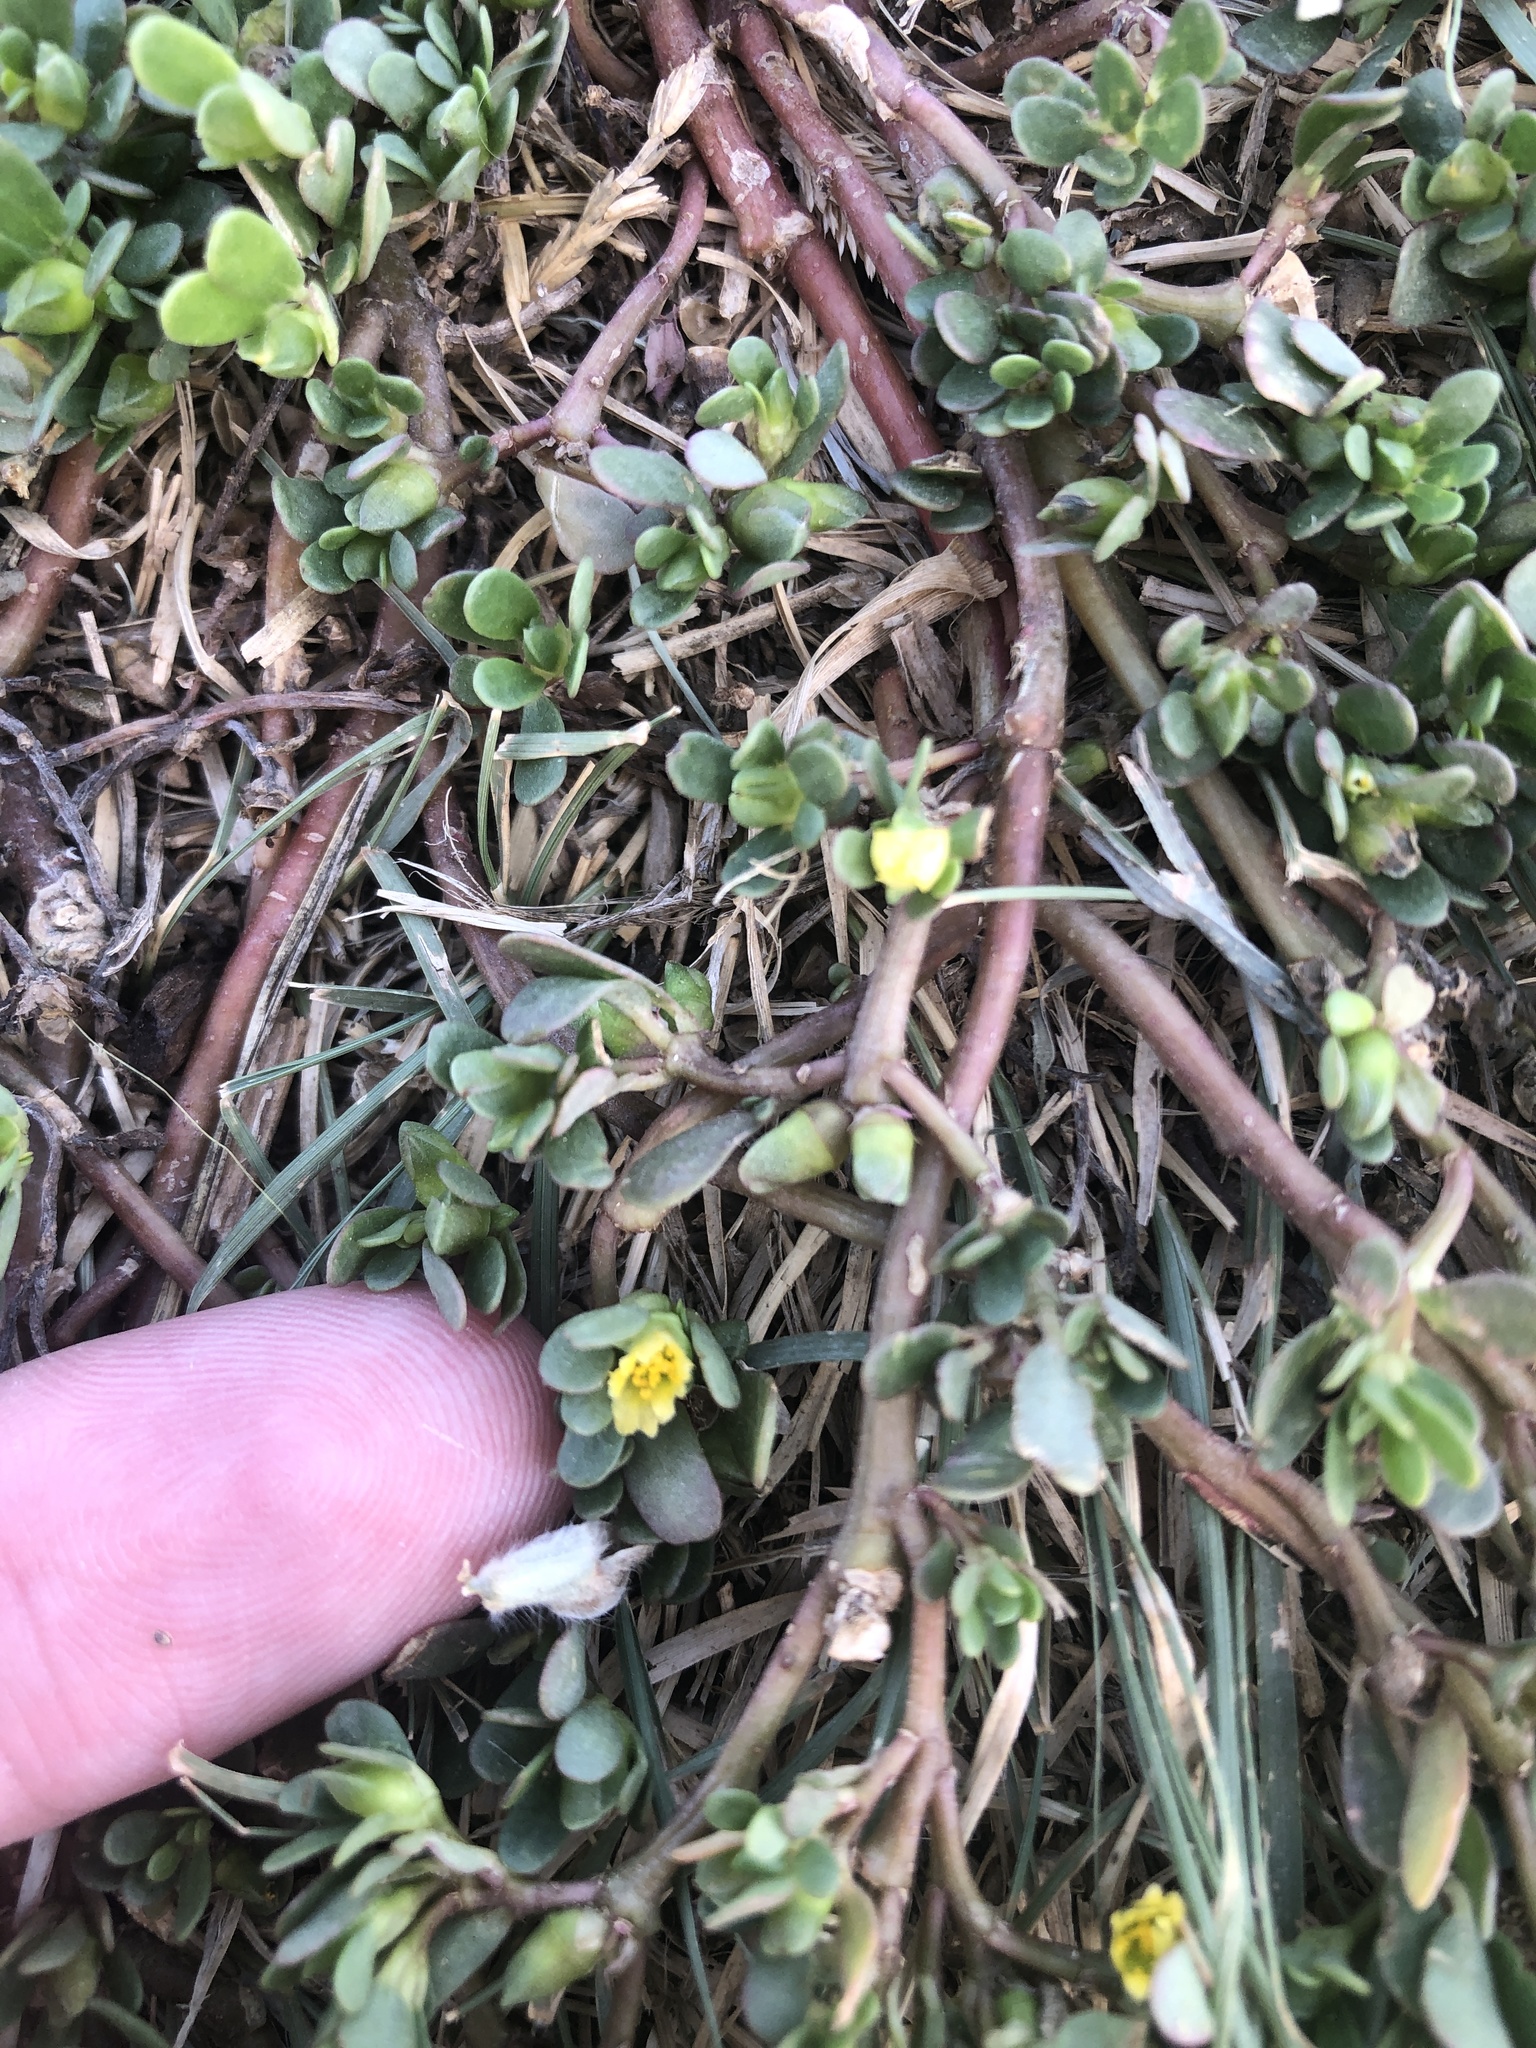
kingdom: Plantae
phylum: Tracheophyta
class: Magnoliopsida
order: Caryophyllales
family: Portulacaceae
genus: Portulaca
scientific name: Portulaca oleracea
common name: Common purslane
